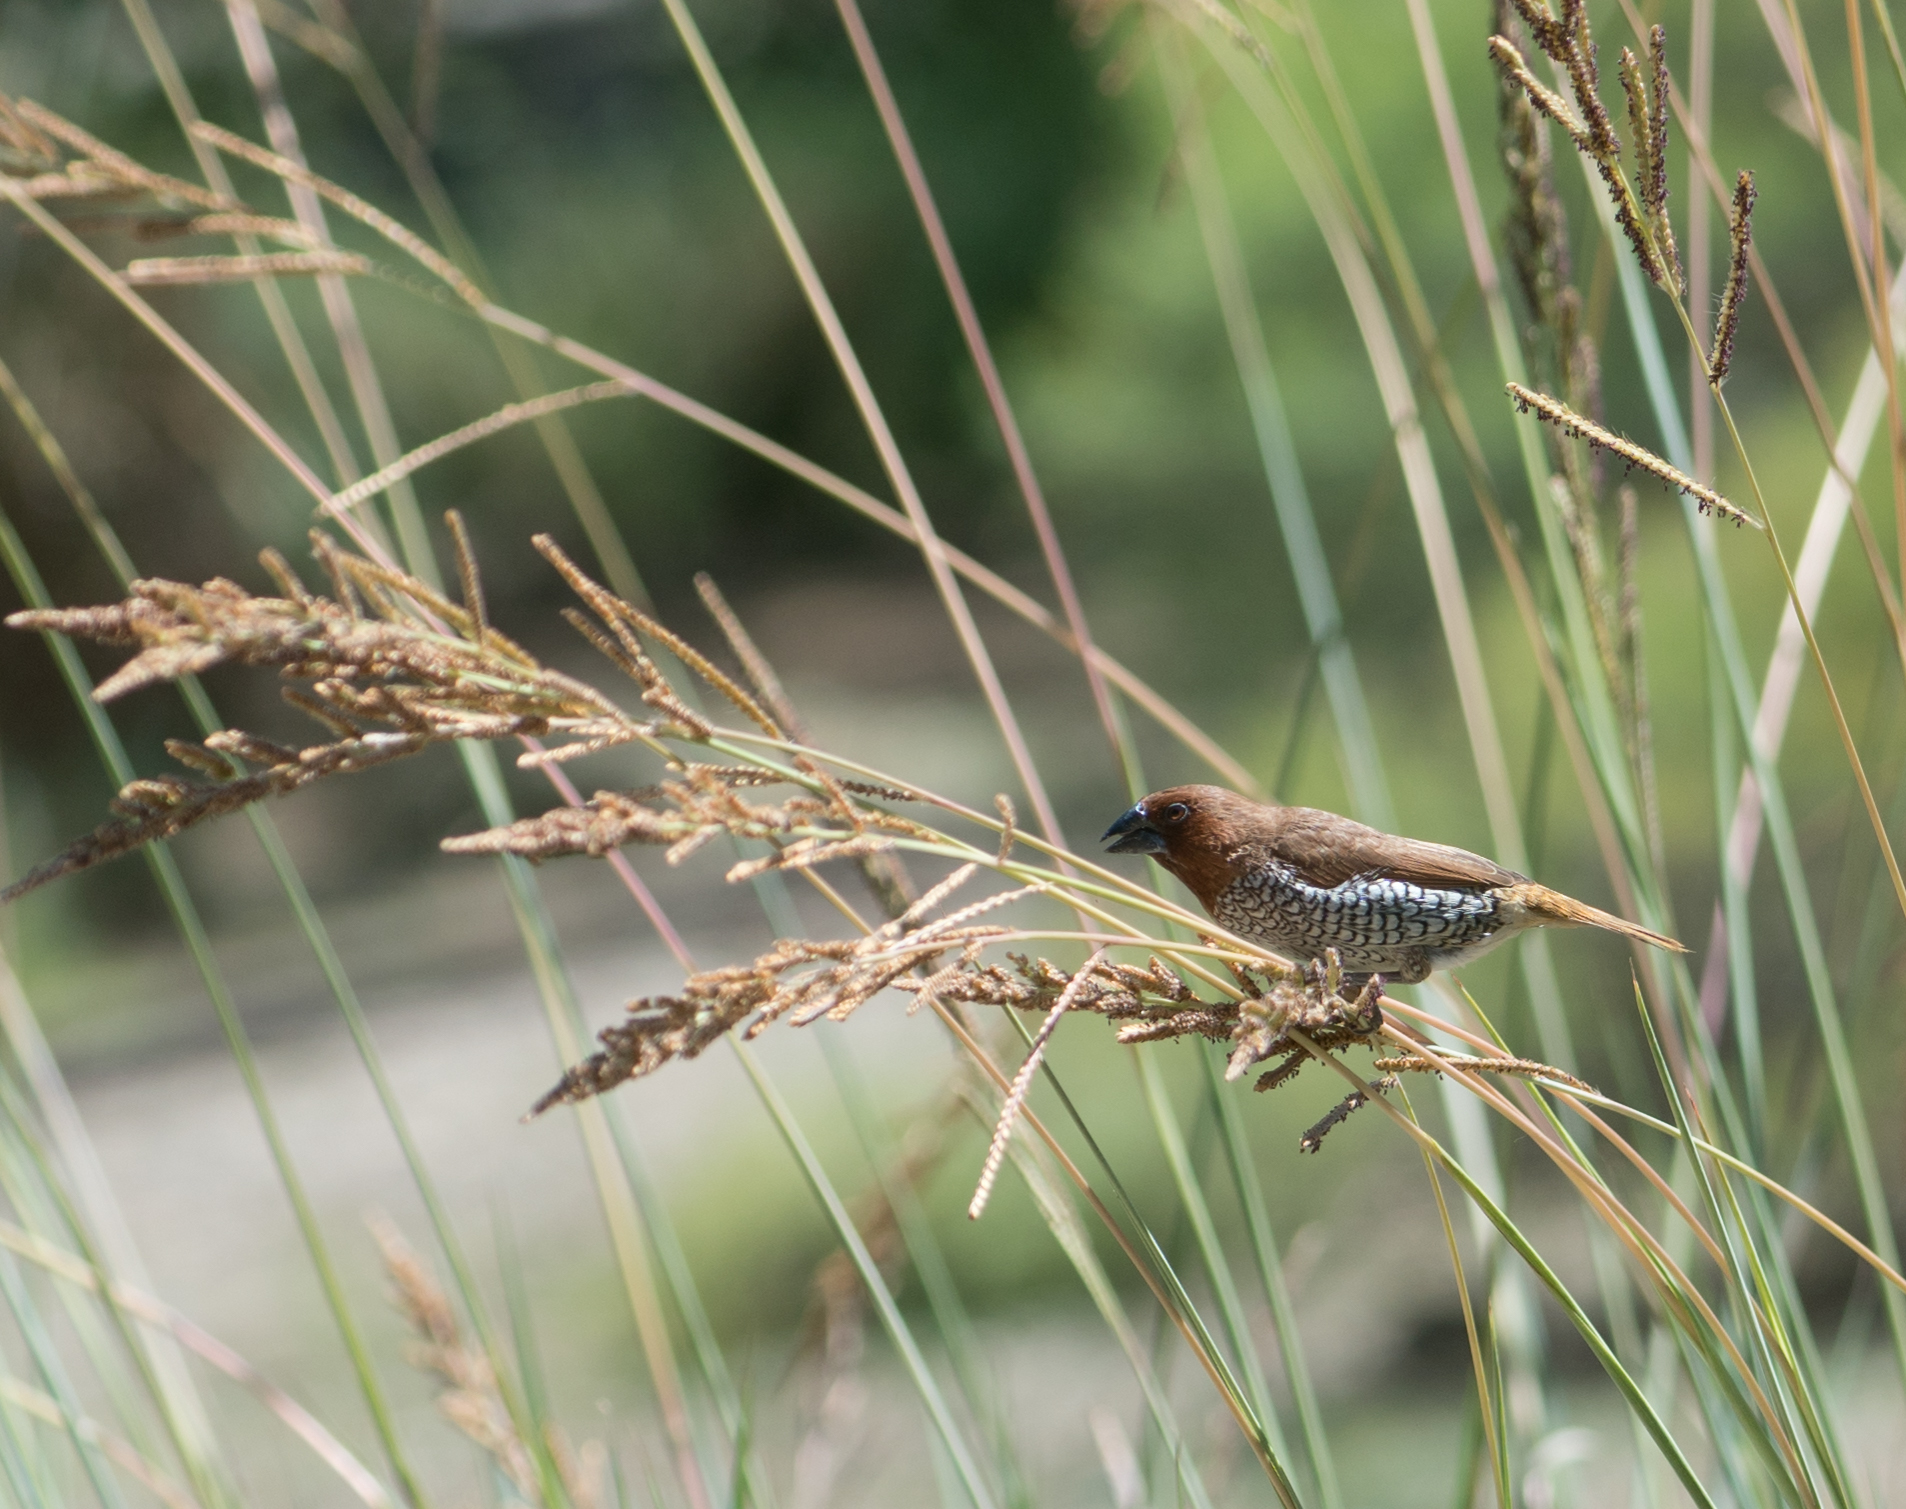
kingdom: Animalia
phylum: Chordata
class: Aves
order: Passeriformes
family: Estrildidae
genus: Lonchura
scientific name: Lonchura punctulata
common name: Scaly-breasted munia
